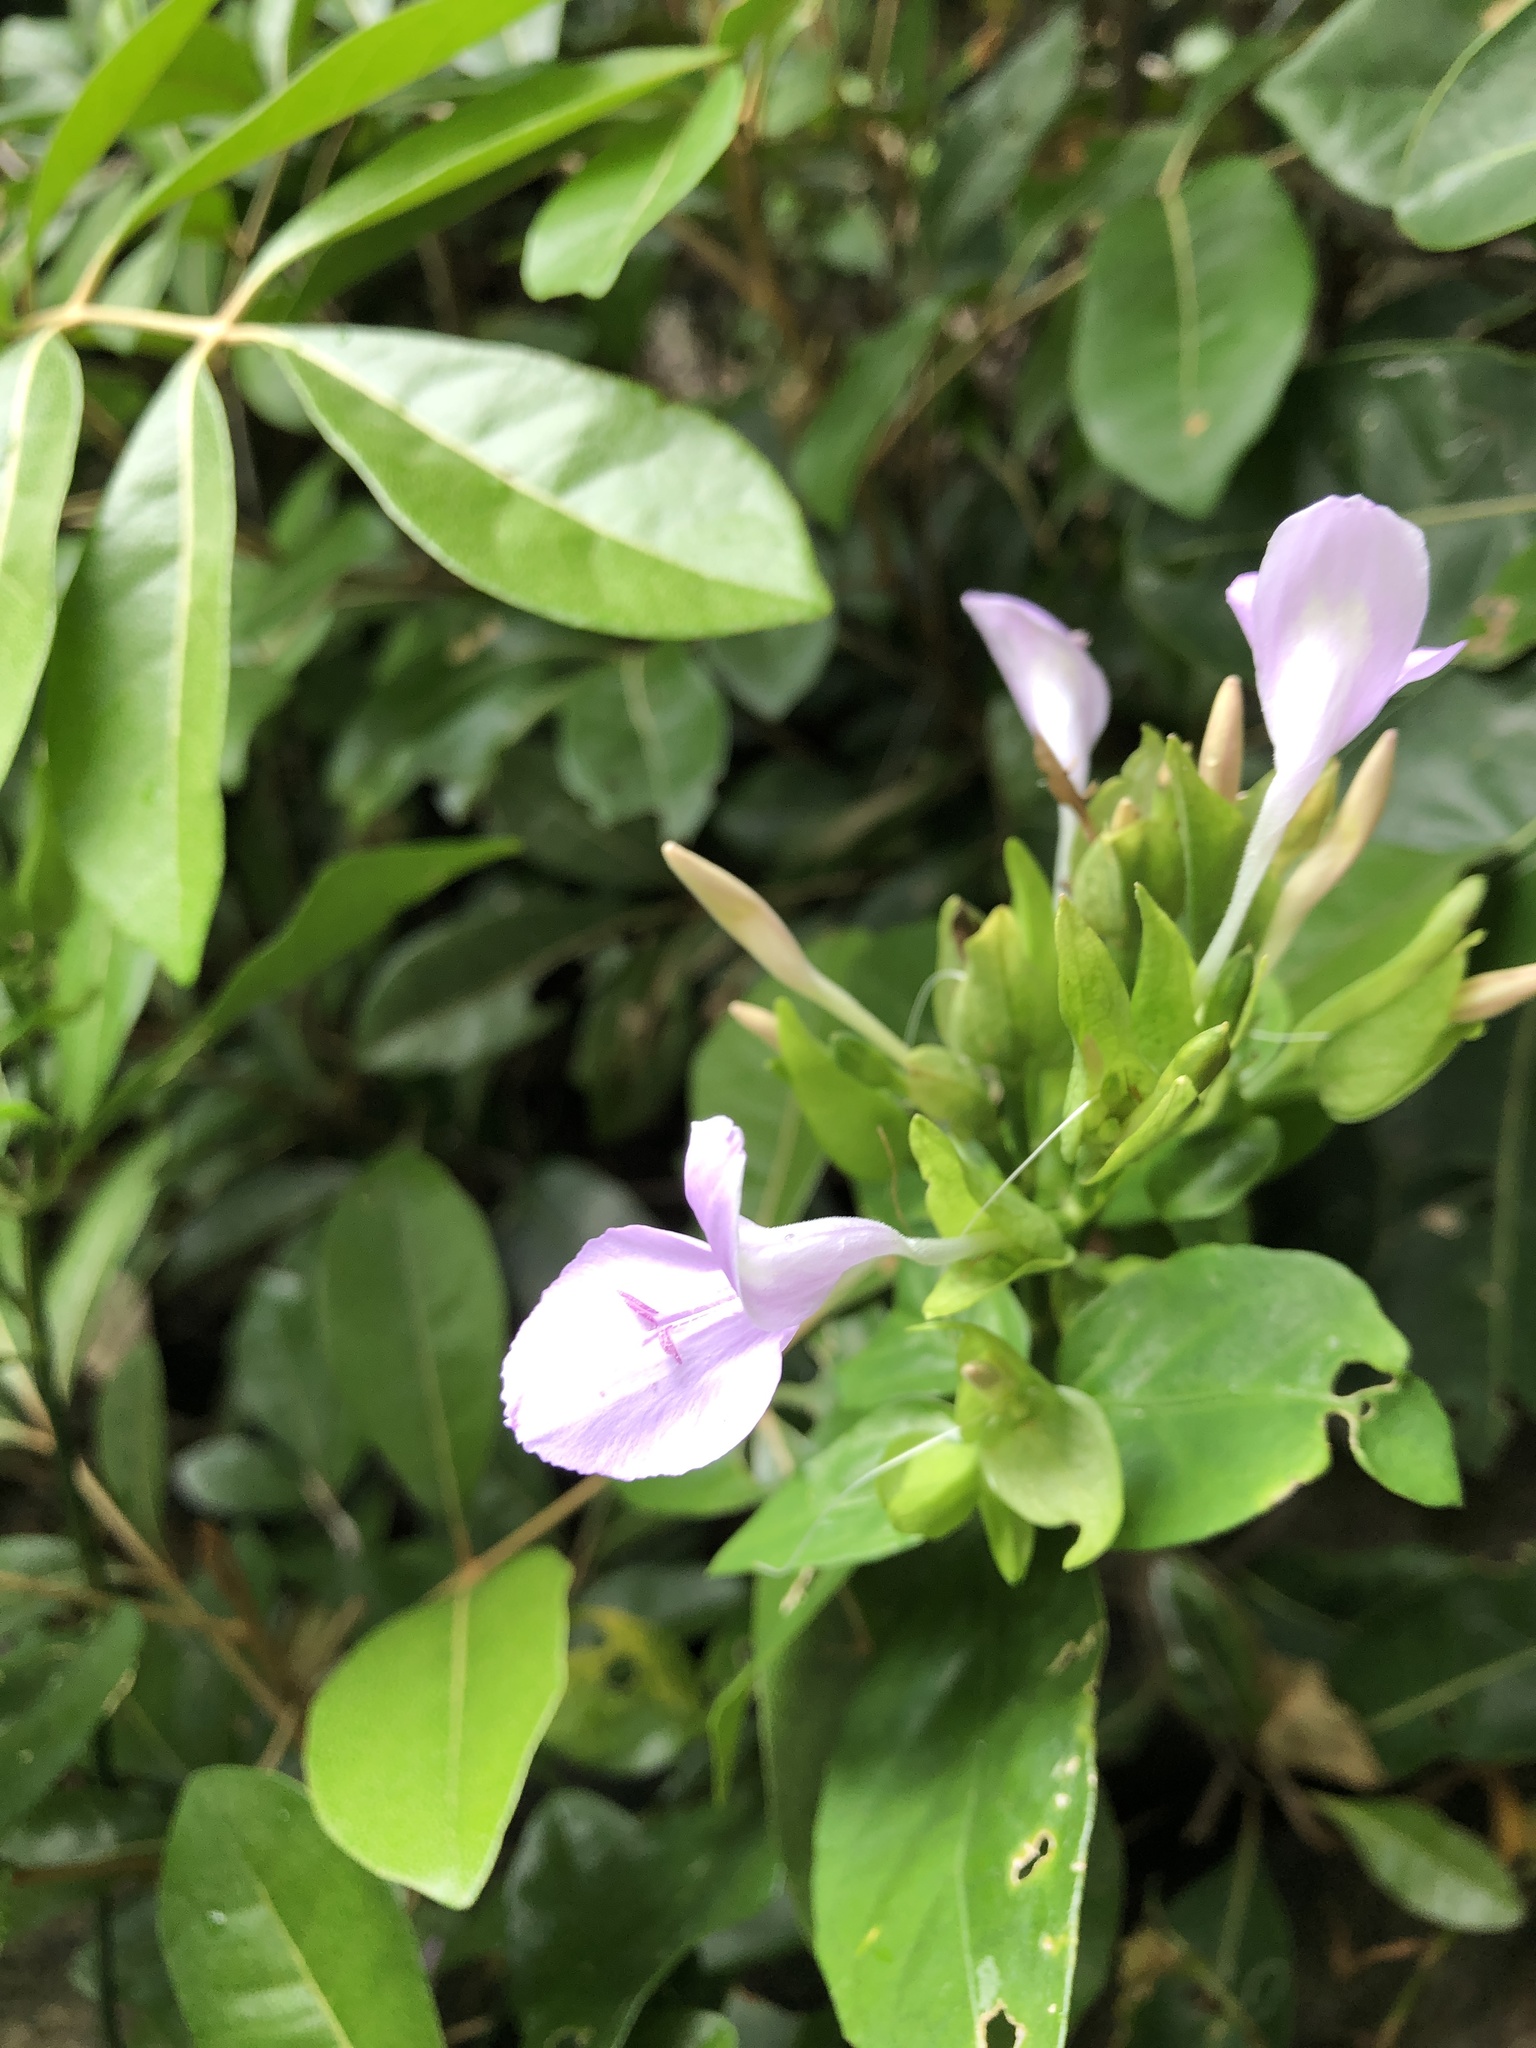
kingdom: Plantae
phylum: Tracheophyta
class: Magnoliopsida
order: Lamiales
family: Acanthaceae
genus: Dicliptera
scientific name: Dicliptera tinctoria
